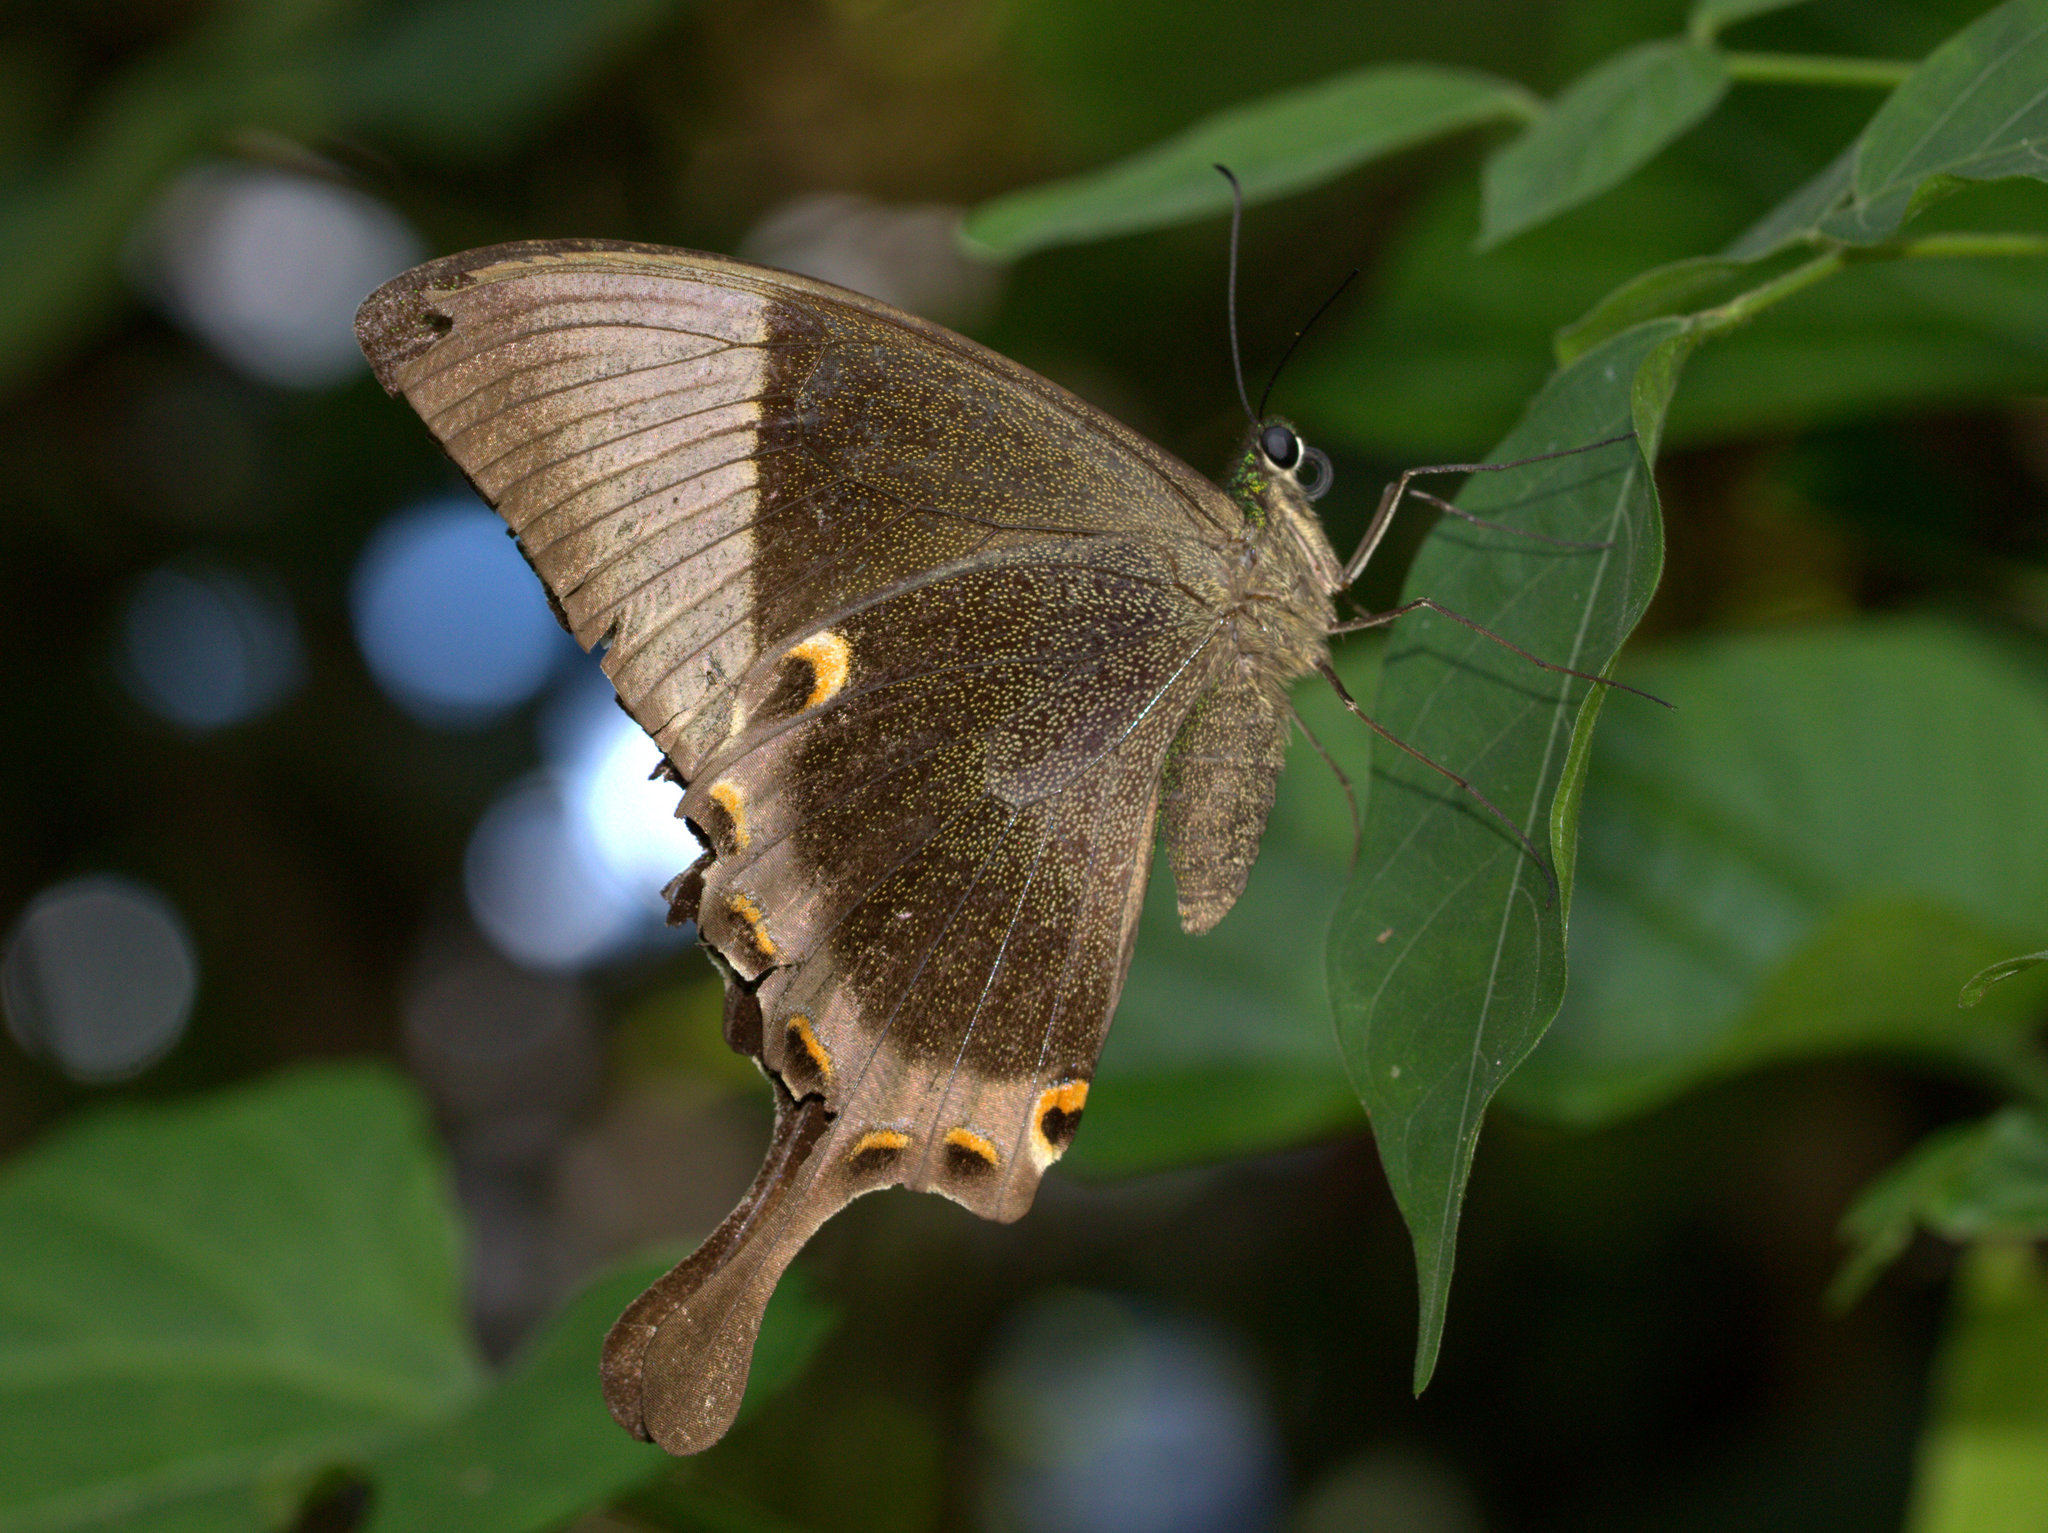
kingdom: Animalia
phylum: Arthropoda
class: Insecta
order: Lepidoptera
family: Papilionidae
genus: Papilio
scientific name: Papilio buddha
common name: Malabar banded peacock
